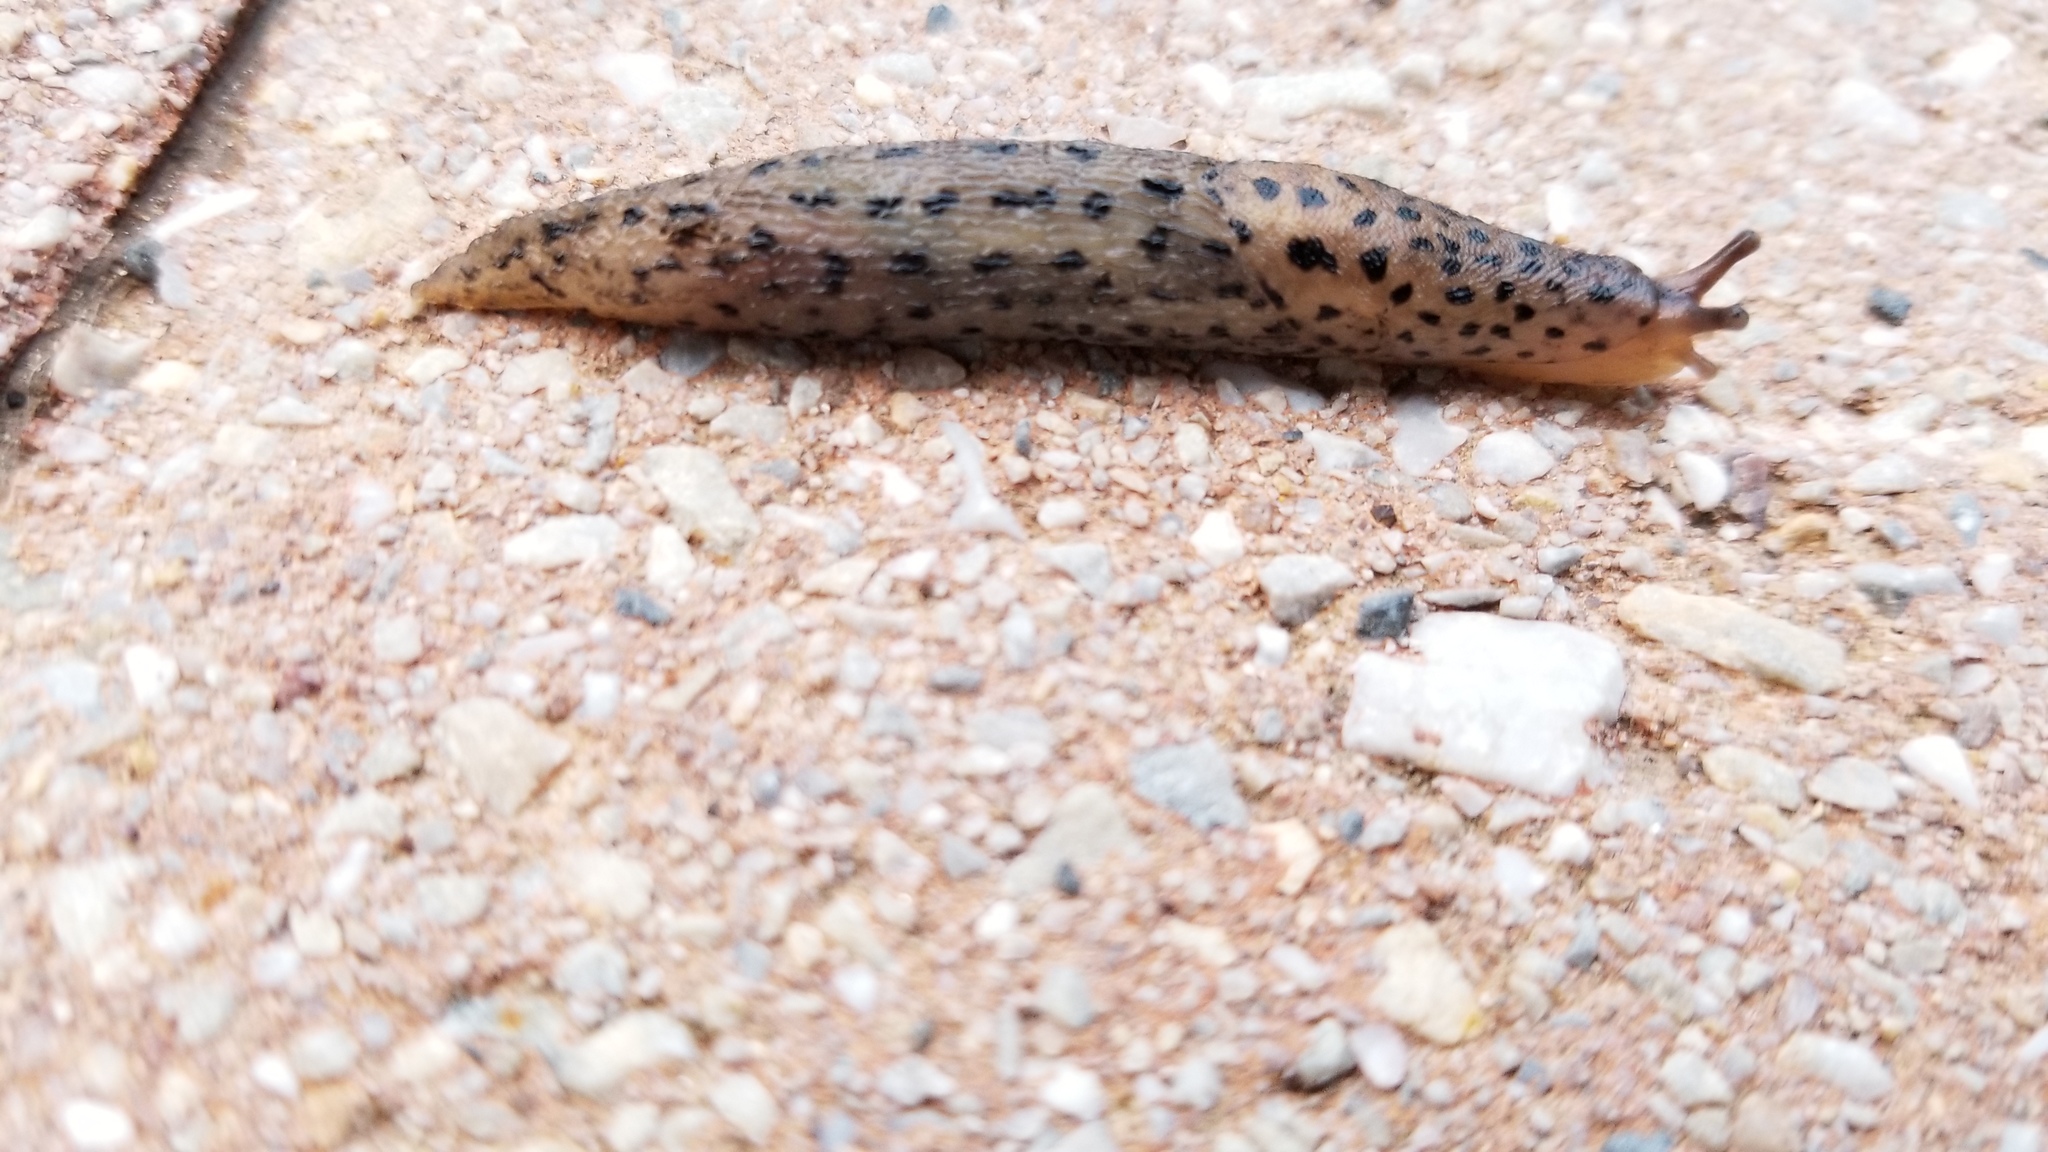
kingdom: Animalia
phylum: Mollusca
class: Gastropoda
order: Stylommatophora
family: Limacidae
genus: Limax
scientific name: Limax maximus
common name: Great grey slug
